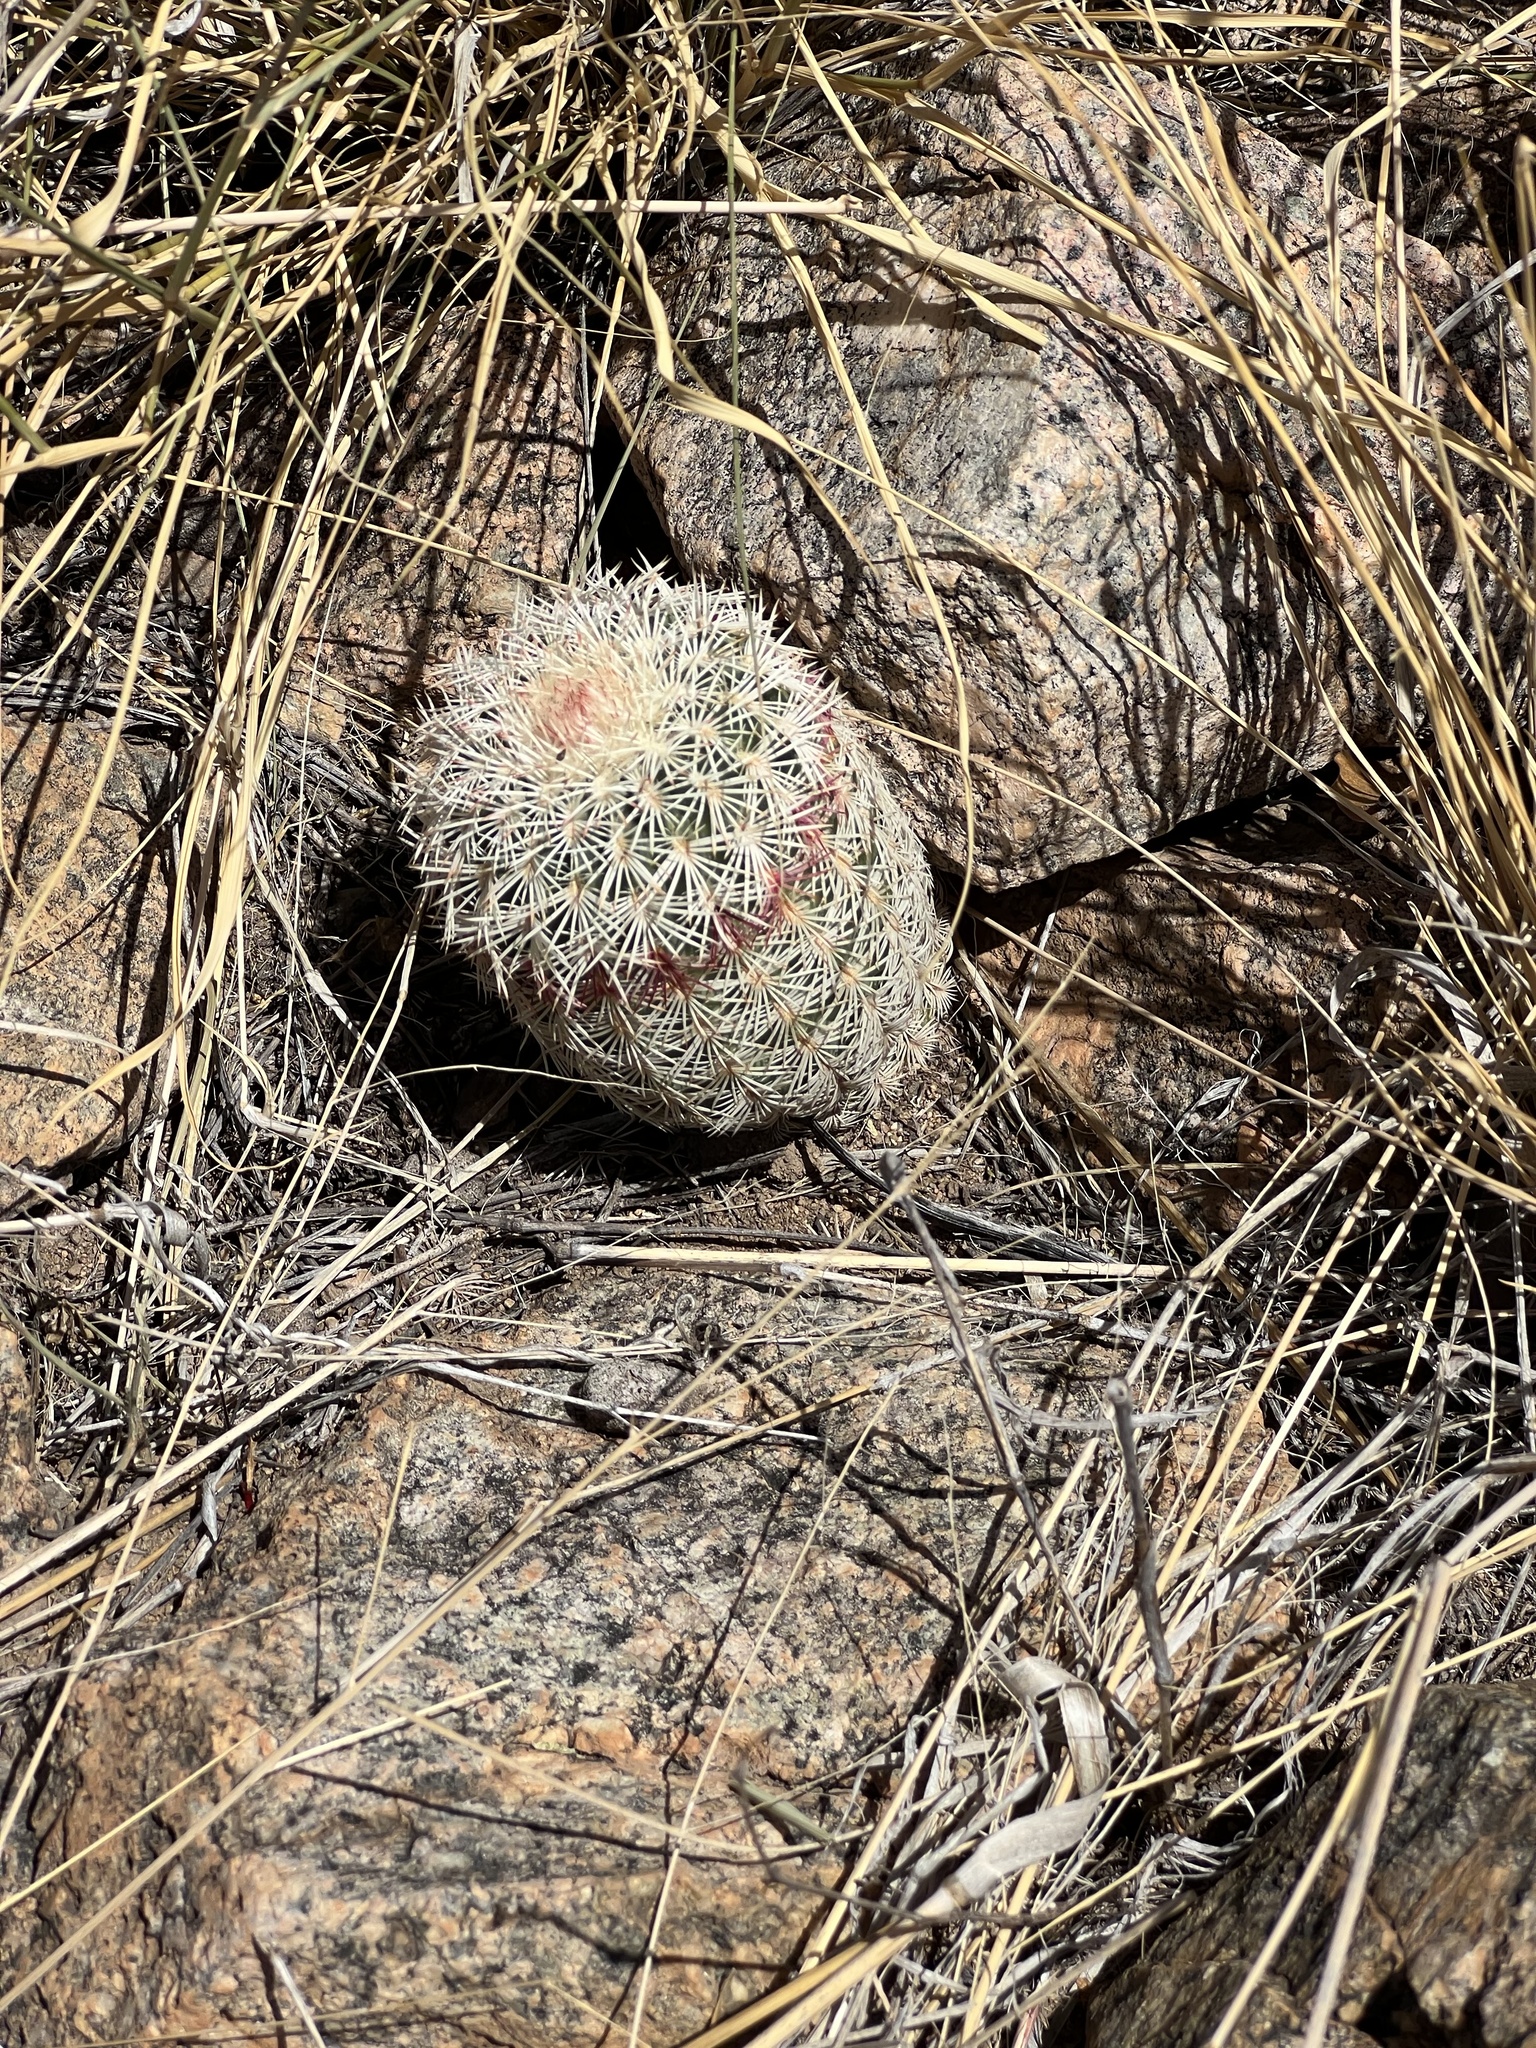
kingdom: Plantae
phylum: Tracheophyta
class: Magnoliopsida
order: Caryophyllales
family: Cactaceae
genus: Echinocereus
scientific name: Echinocereus rigidissimus
